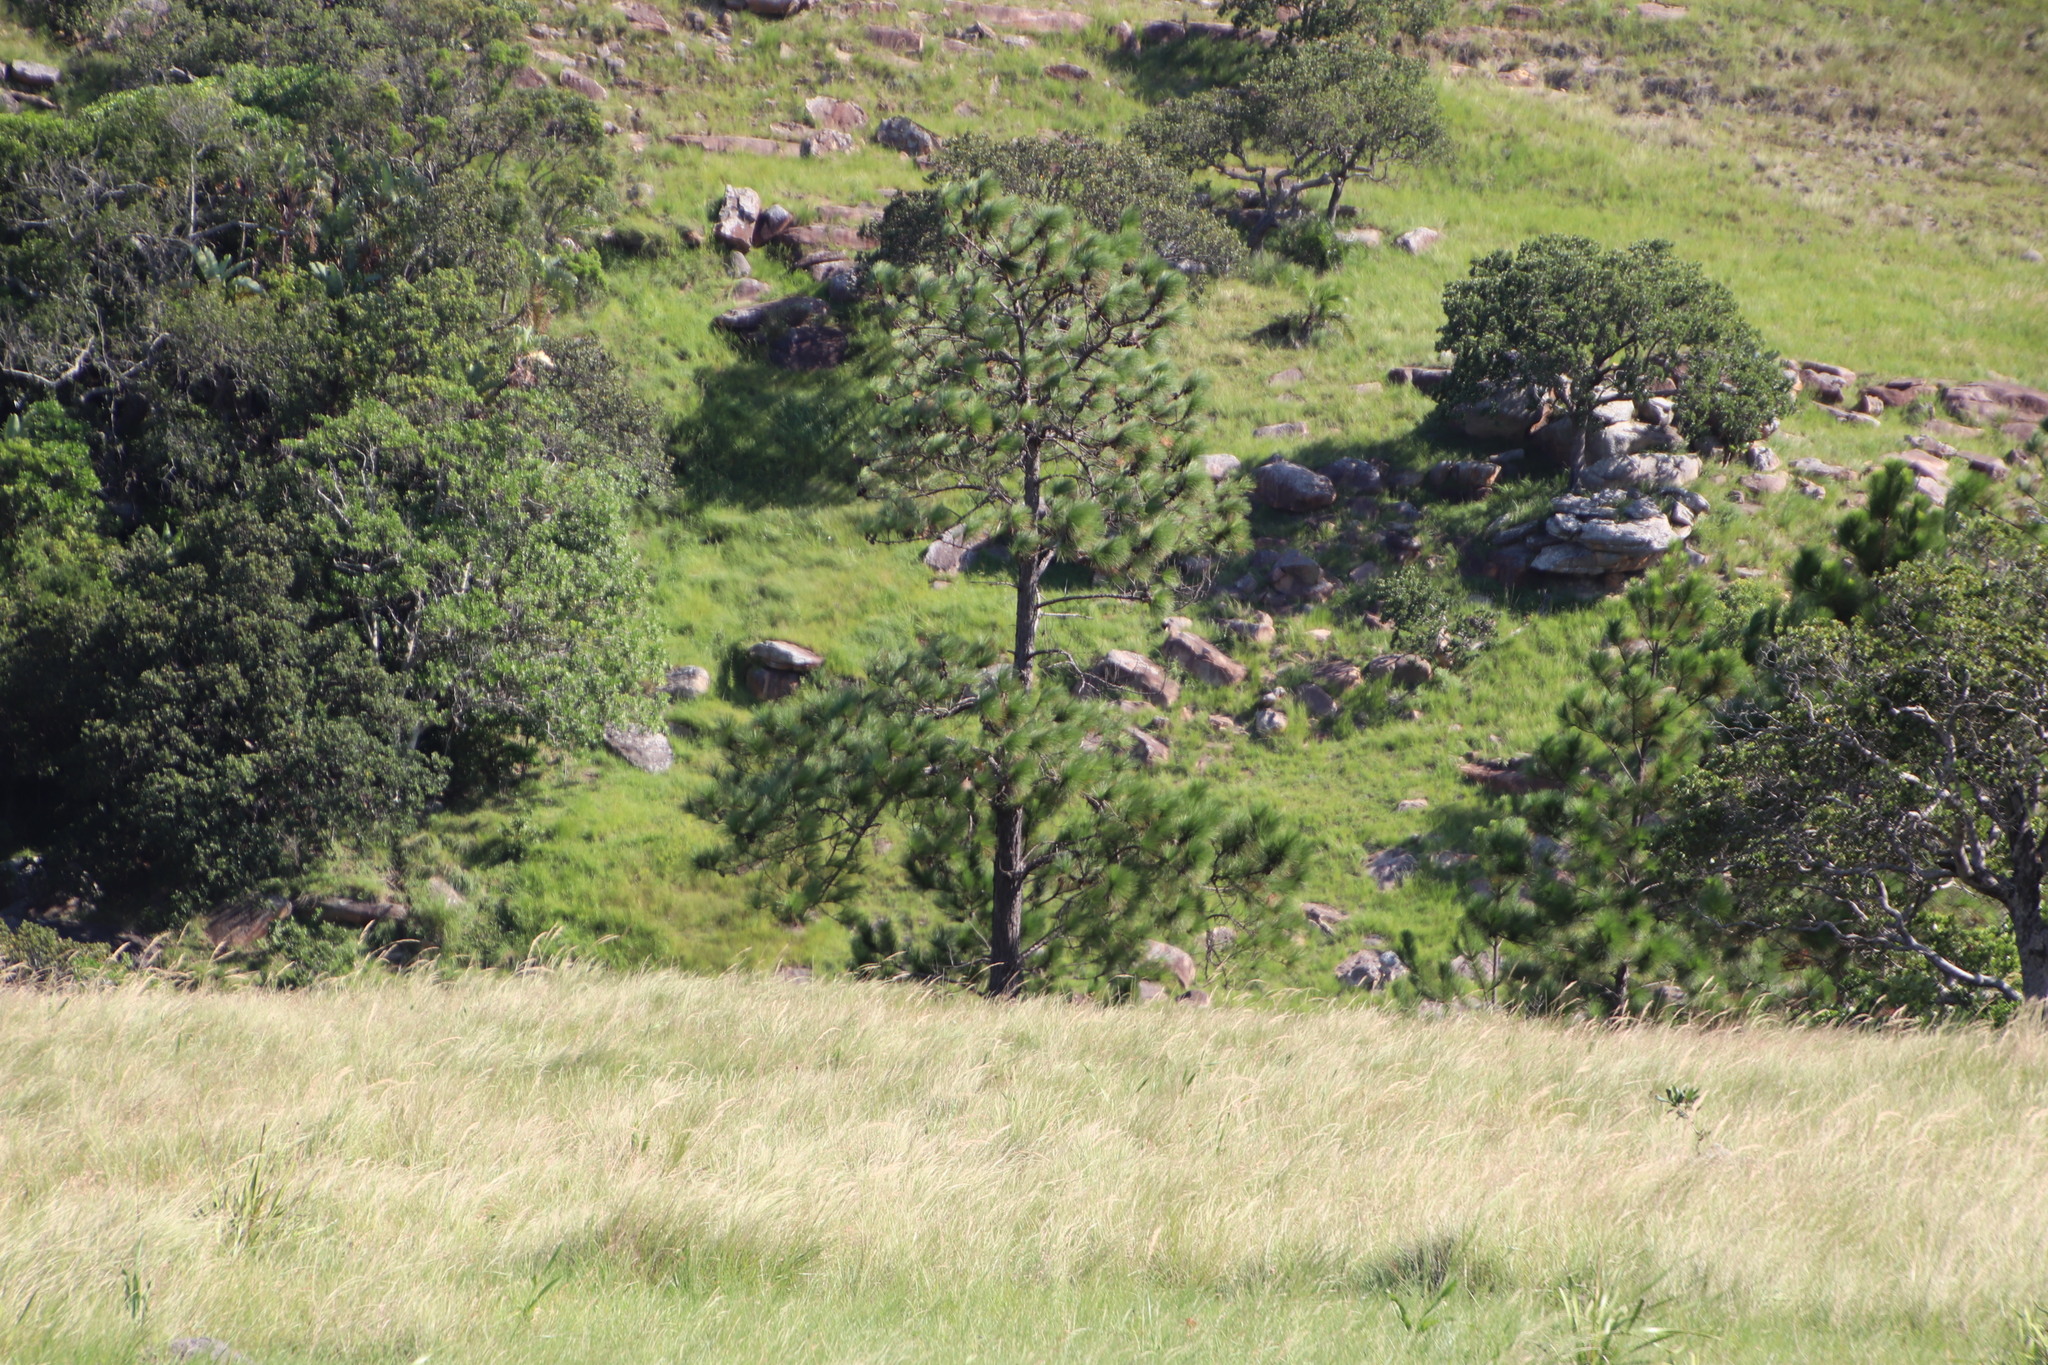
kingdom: Plantae
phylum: Tracheophyta
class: Pinopsida
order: Pinales
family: Pinaceae
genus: Pinus
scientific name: Pinus elliottii
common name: Slash pine
